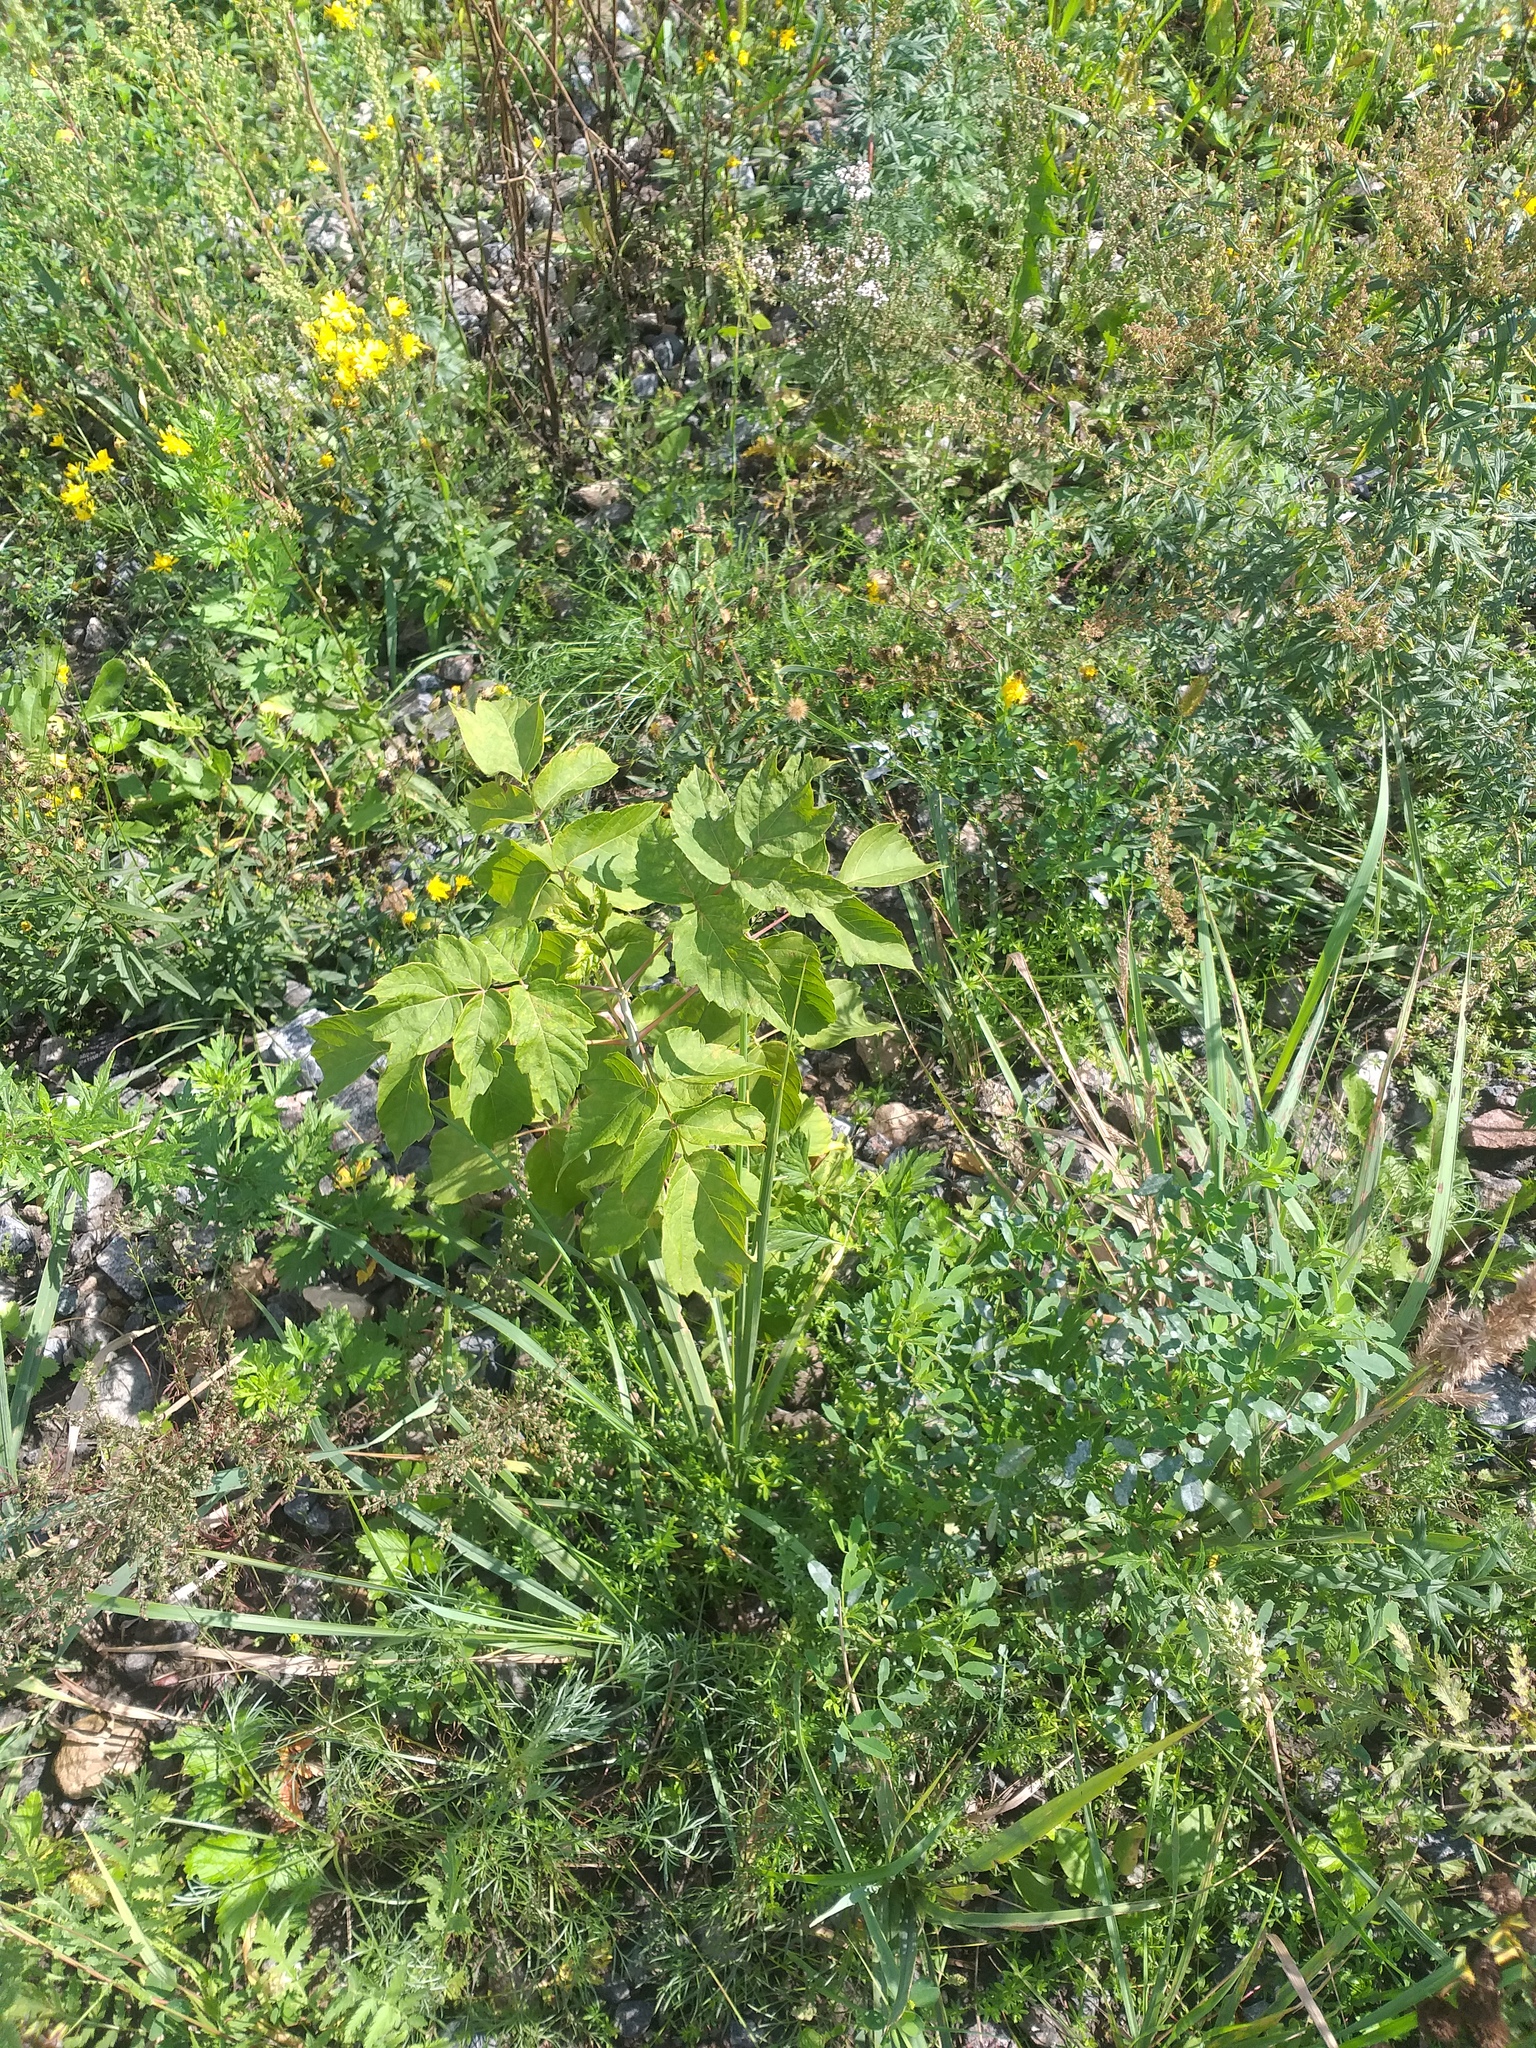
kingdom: Plantae
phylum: Tracheophyta
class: Magnoliopsida
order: Sapindales
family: Sapindaceae
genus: Acer
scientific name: Acer negundo
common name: Ashleaf maple
